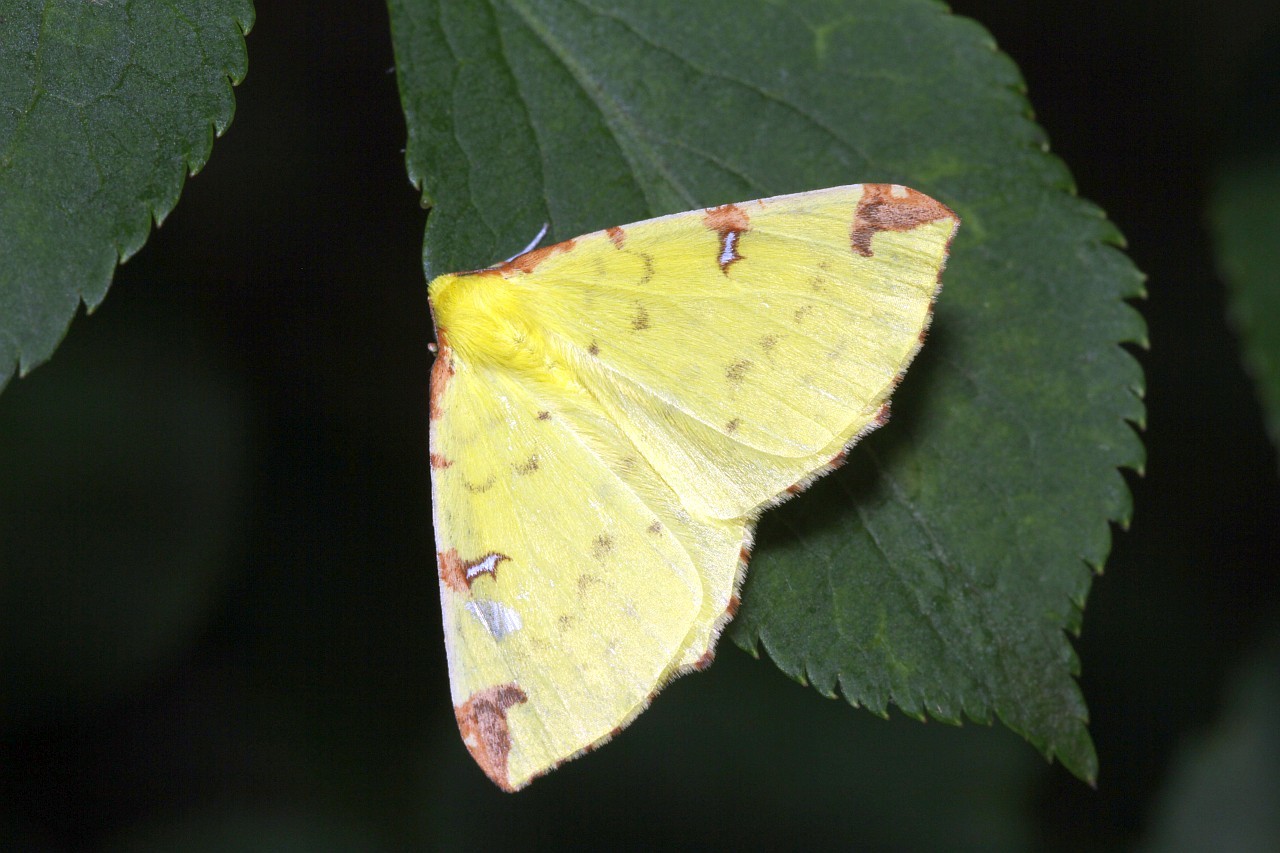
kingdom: Animalia
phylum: Arthropoda
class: Insecta
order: Lepidoptera
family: Geometridae
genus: Opisthograptis
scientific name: Opisthograptis luteolata
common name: Brimstone moth
